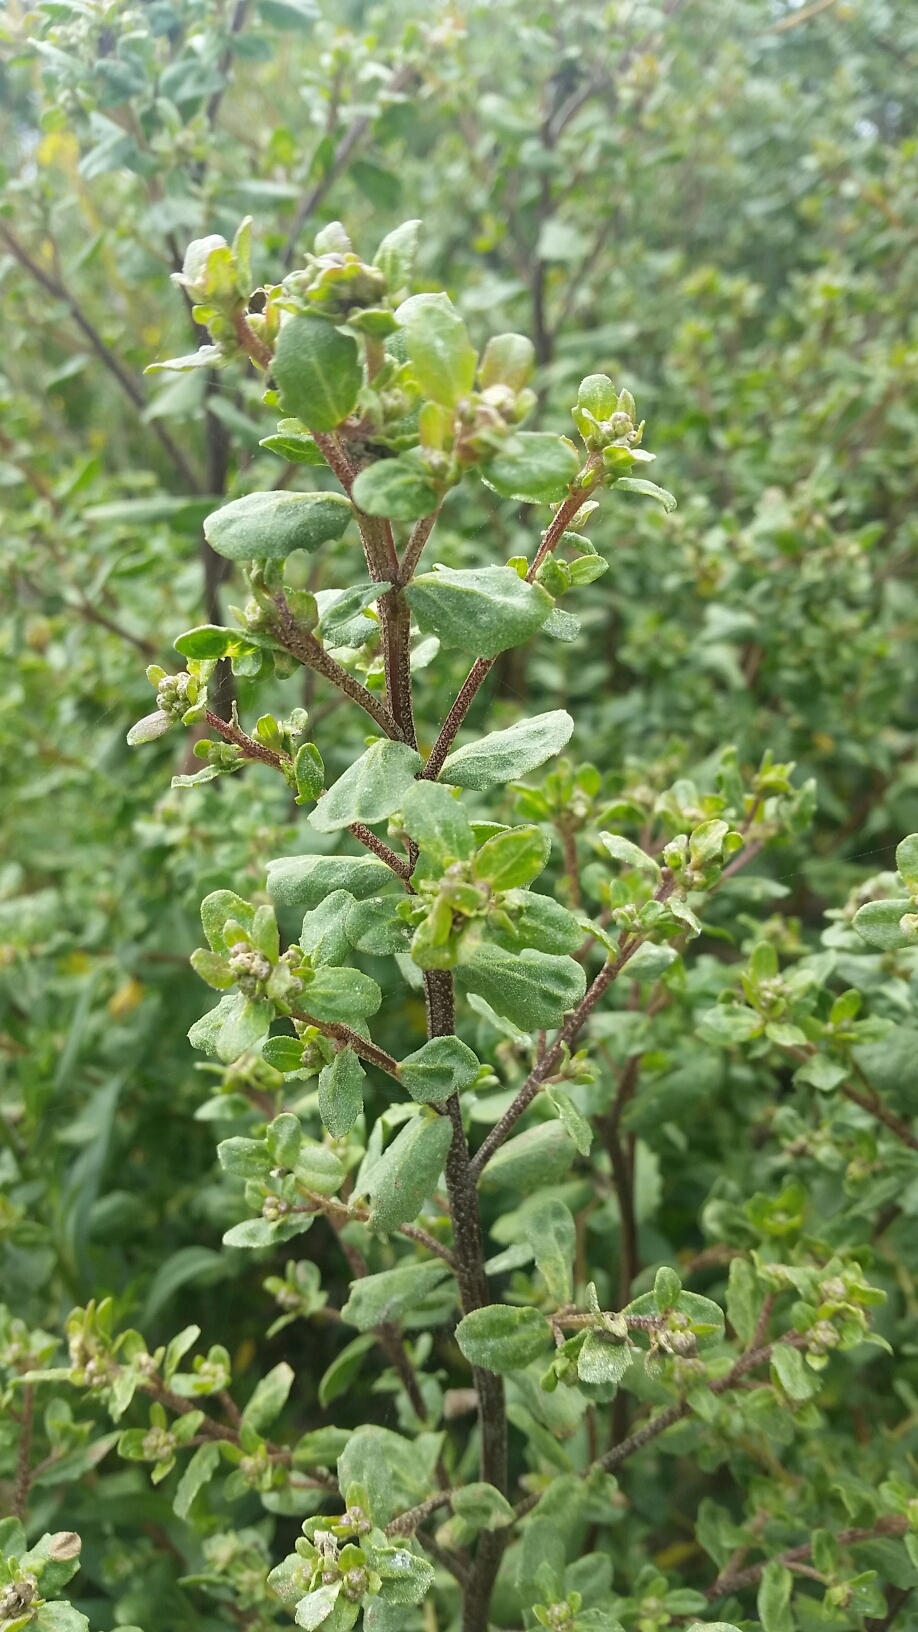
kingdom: Plantae
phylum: Tracheophyta
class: Magnoliopsida
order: Asterales
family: Asteraceae
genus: Baccharis
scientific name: Baccharis pilularis
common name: Coyotebrush
